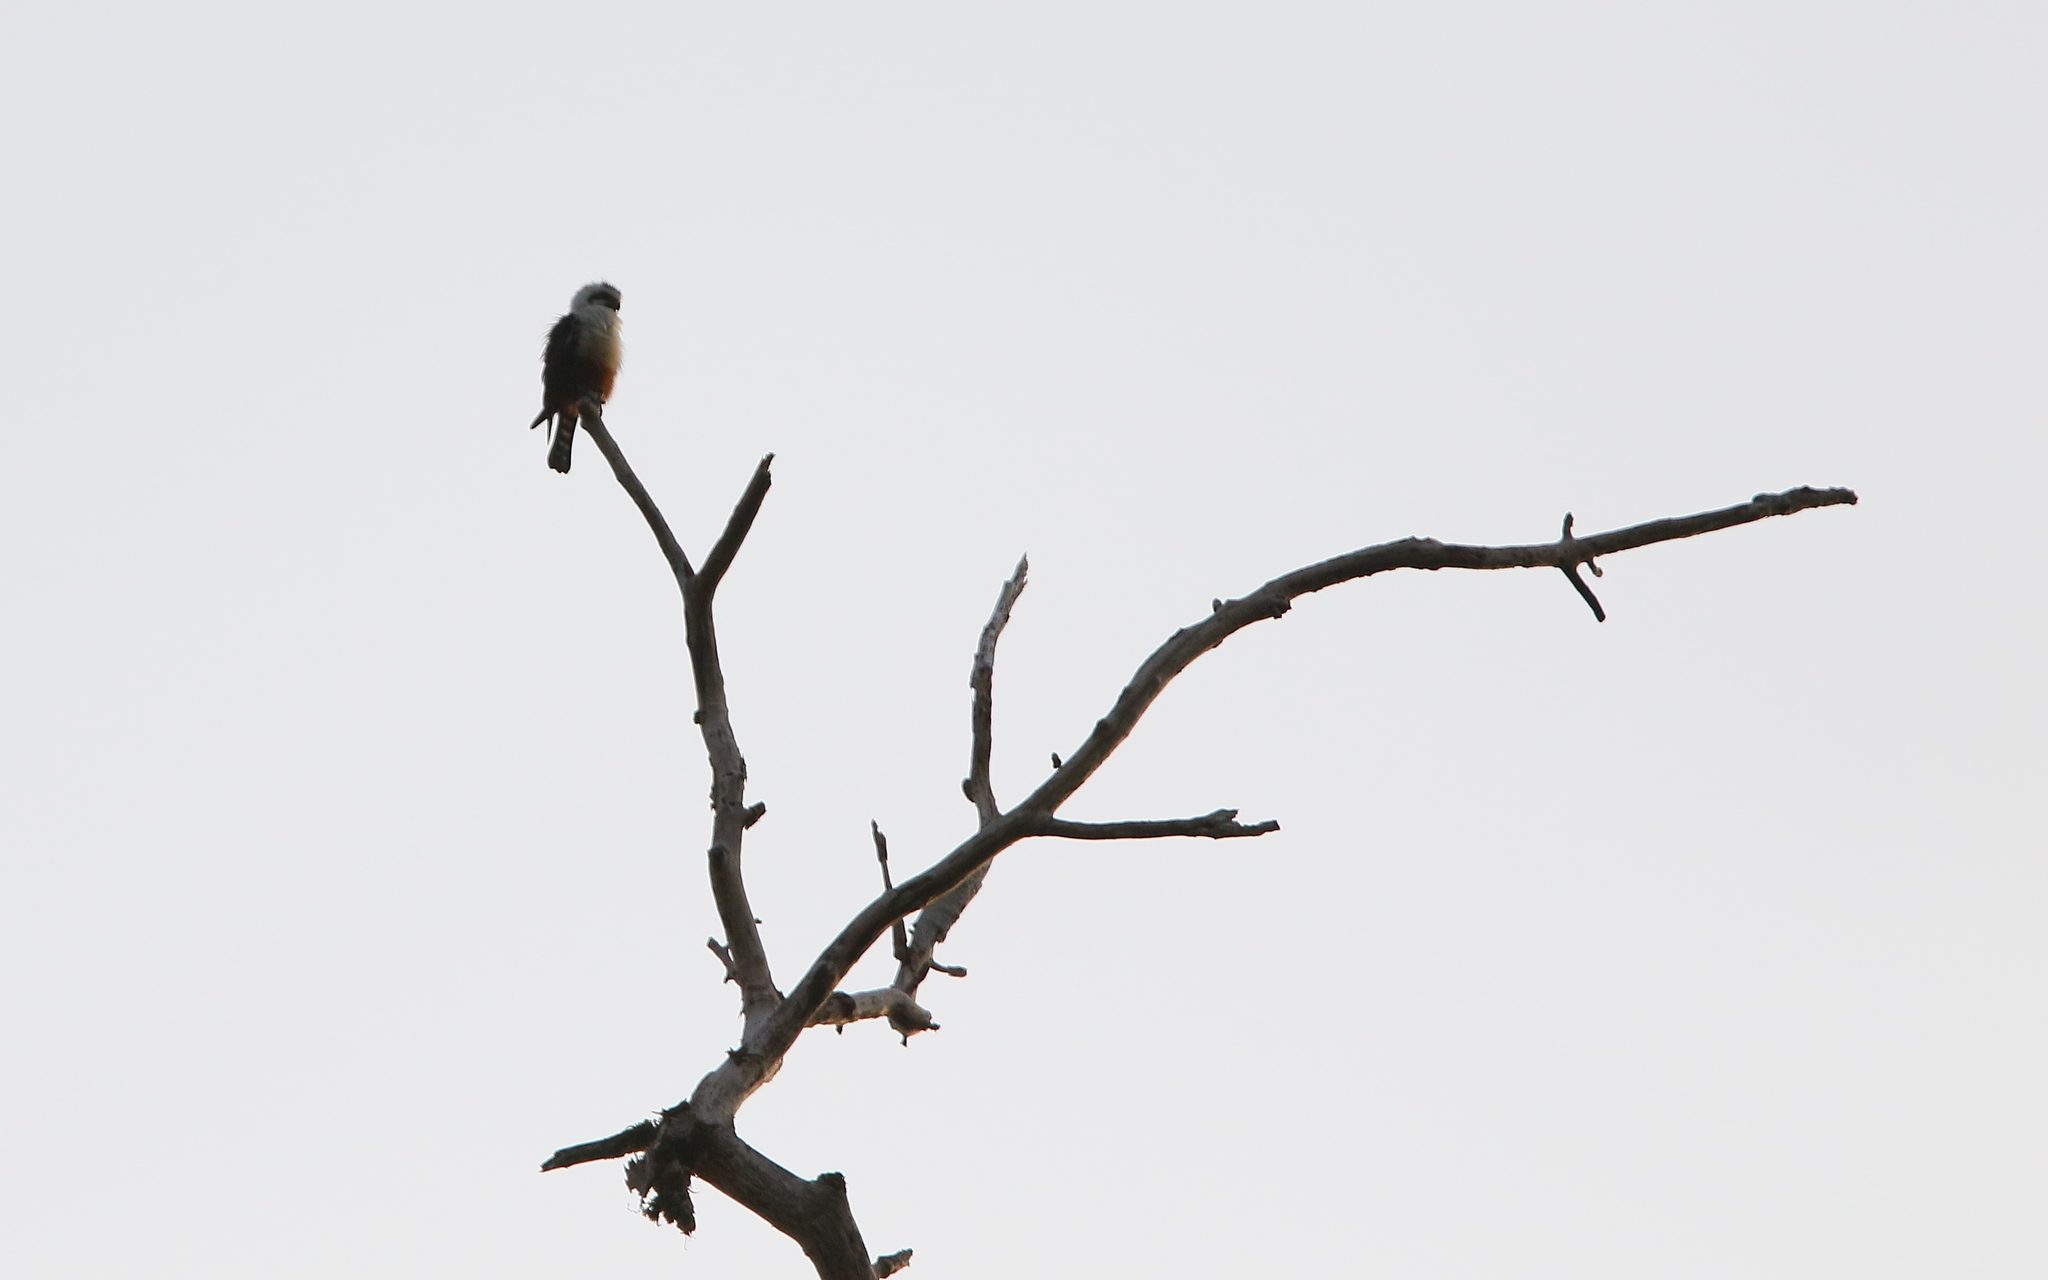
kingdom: Animalia
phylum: Chordata
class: Aves
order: Falconiformes
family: Falconidae
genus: Microhierax
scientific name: Microhierax caerulescens
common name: Collared falconet
